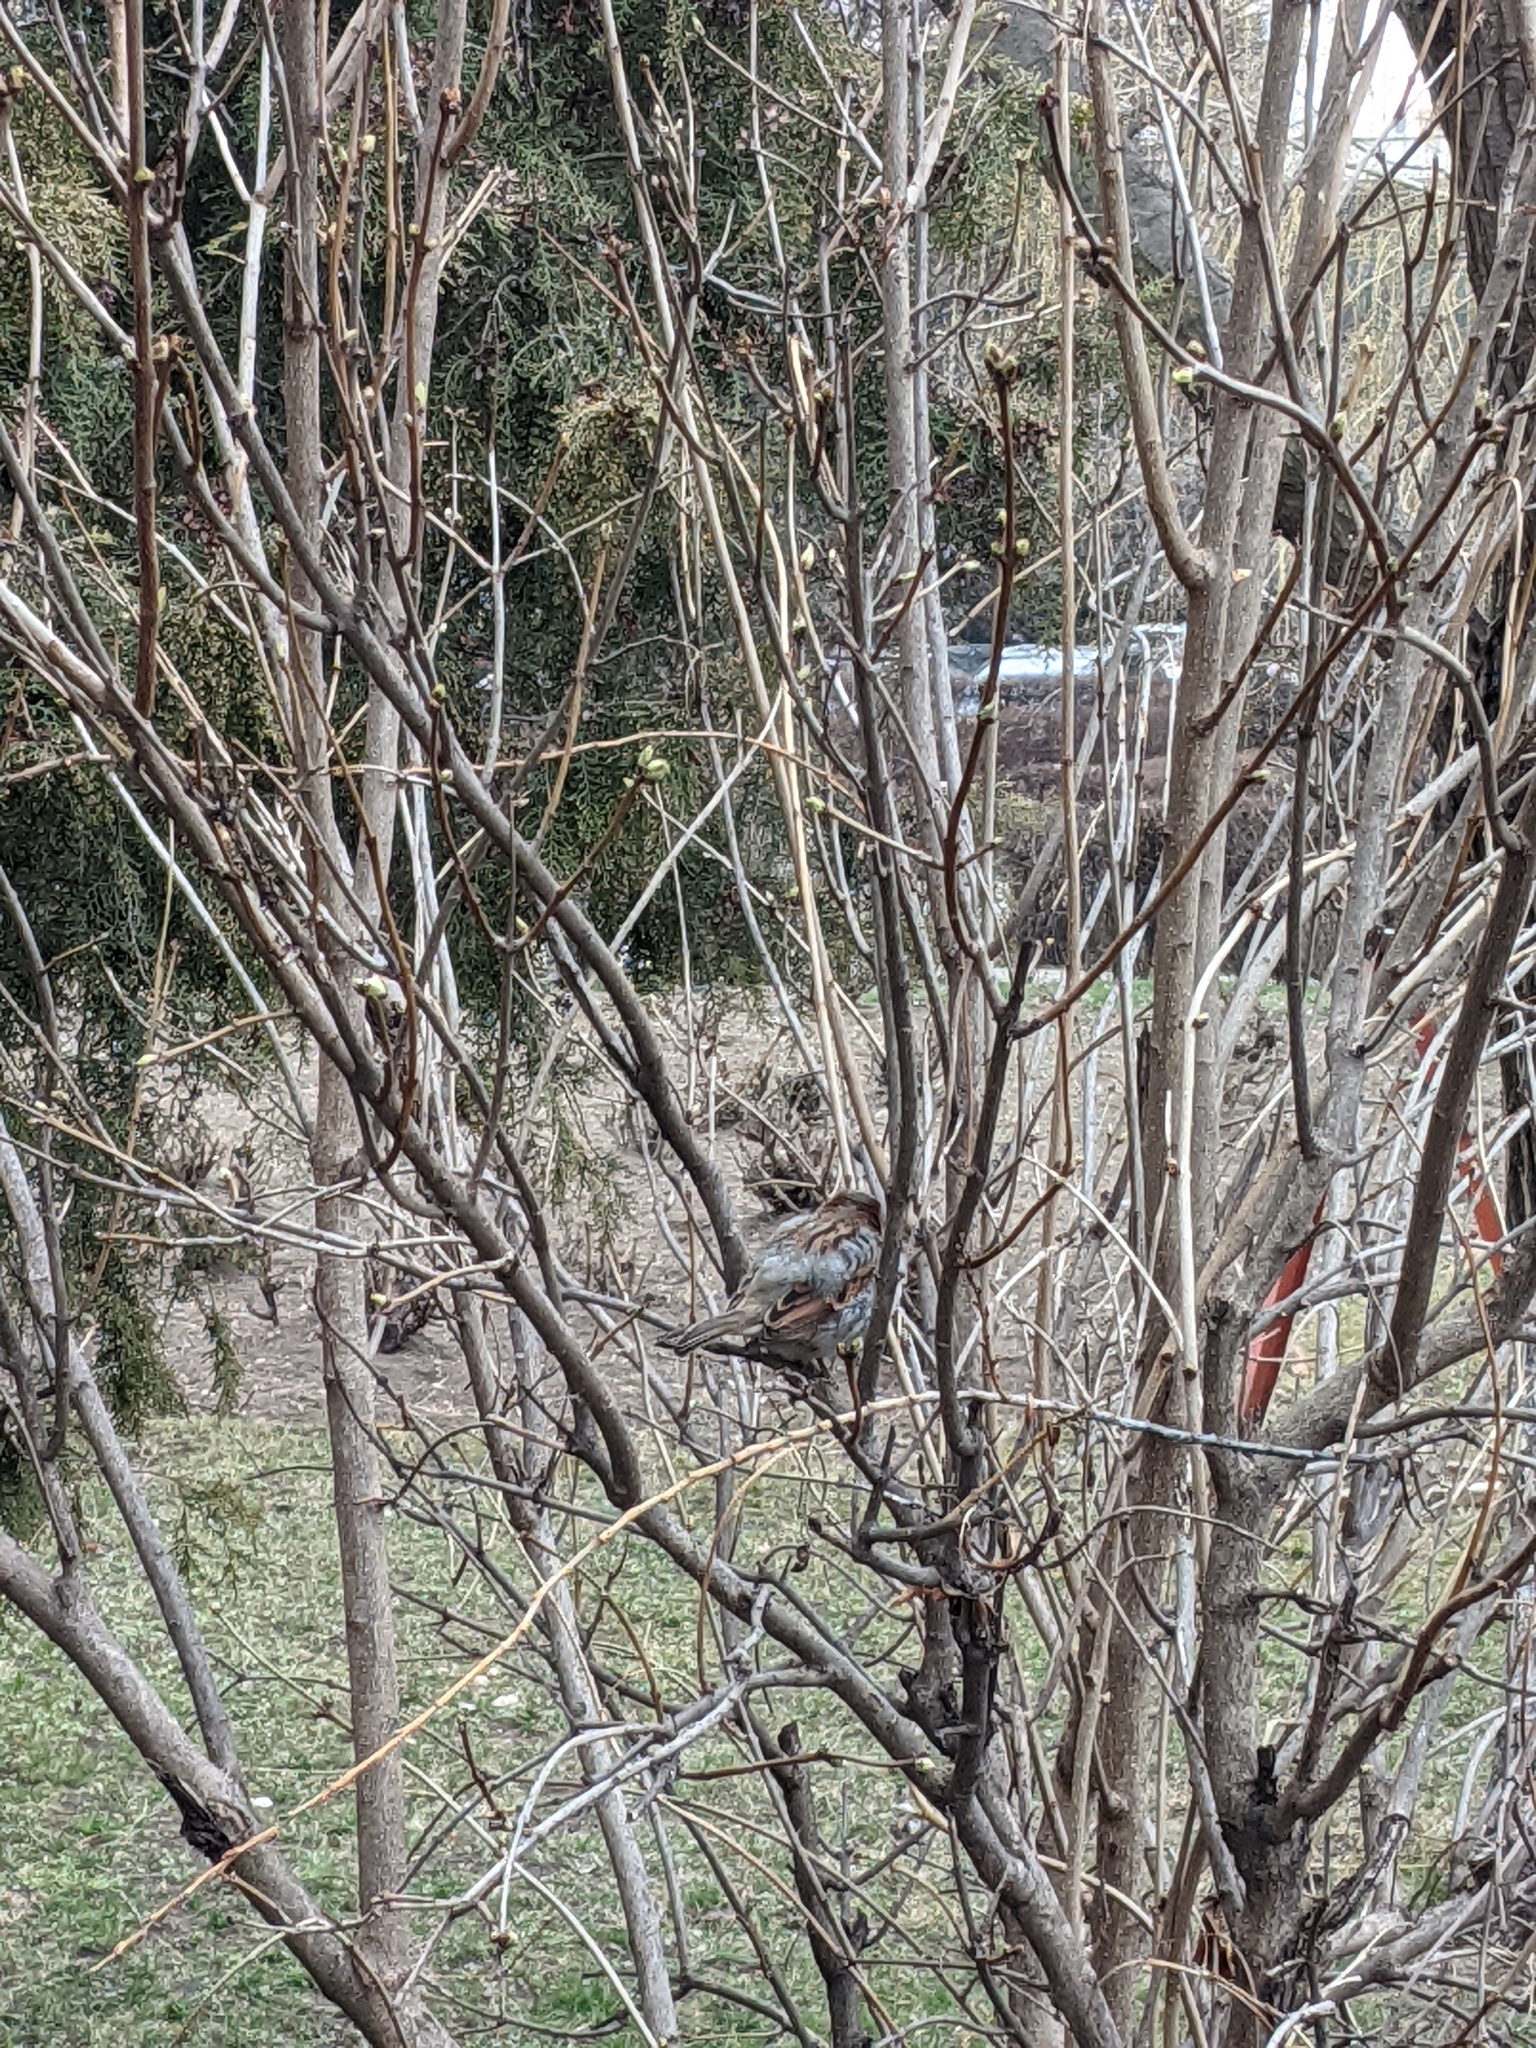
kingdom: Animalia
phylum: Chordata
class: Aves
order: Passeriformes
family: Passeridae
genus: Passer
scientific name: Passer domesticus
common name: House sparrow
